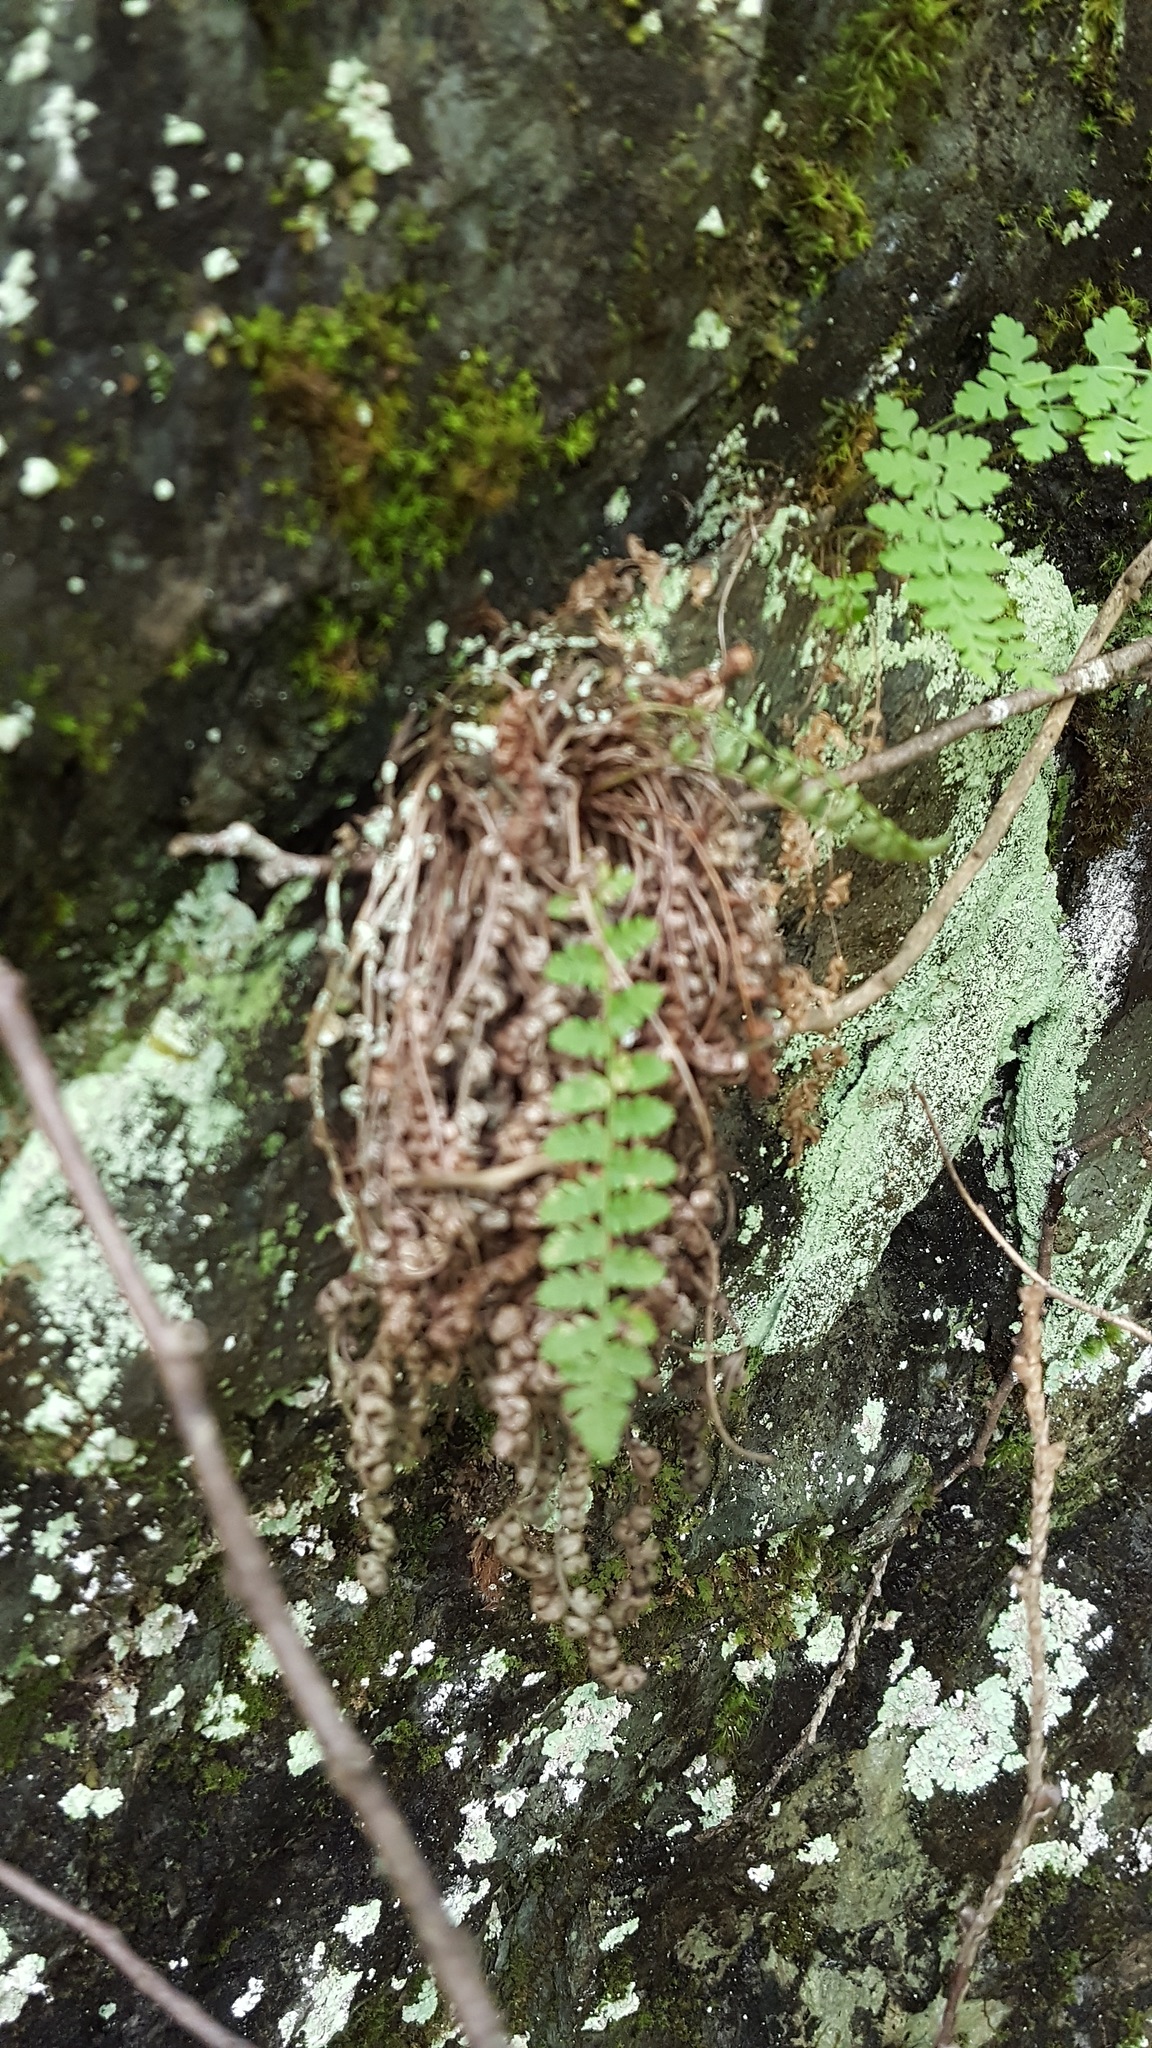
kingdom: Plantae
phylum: Tracheophyta
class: Polypodiopsida
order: Polypodiales
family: Dryopteridaceae
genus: Dryopteris
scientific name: Dryopteris fragrans
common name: Fragrant wood fern
